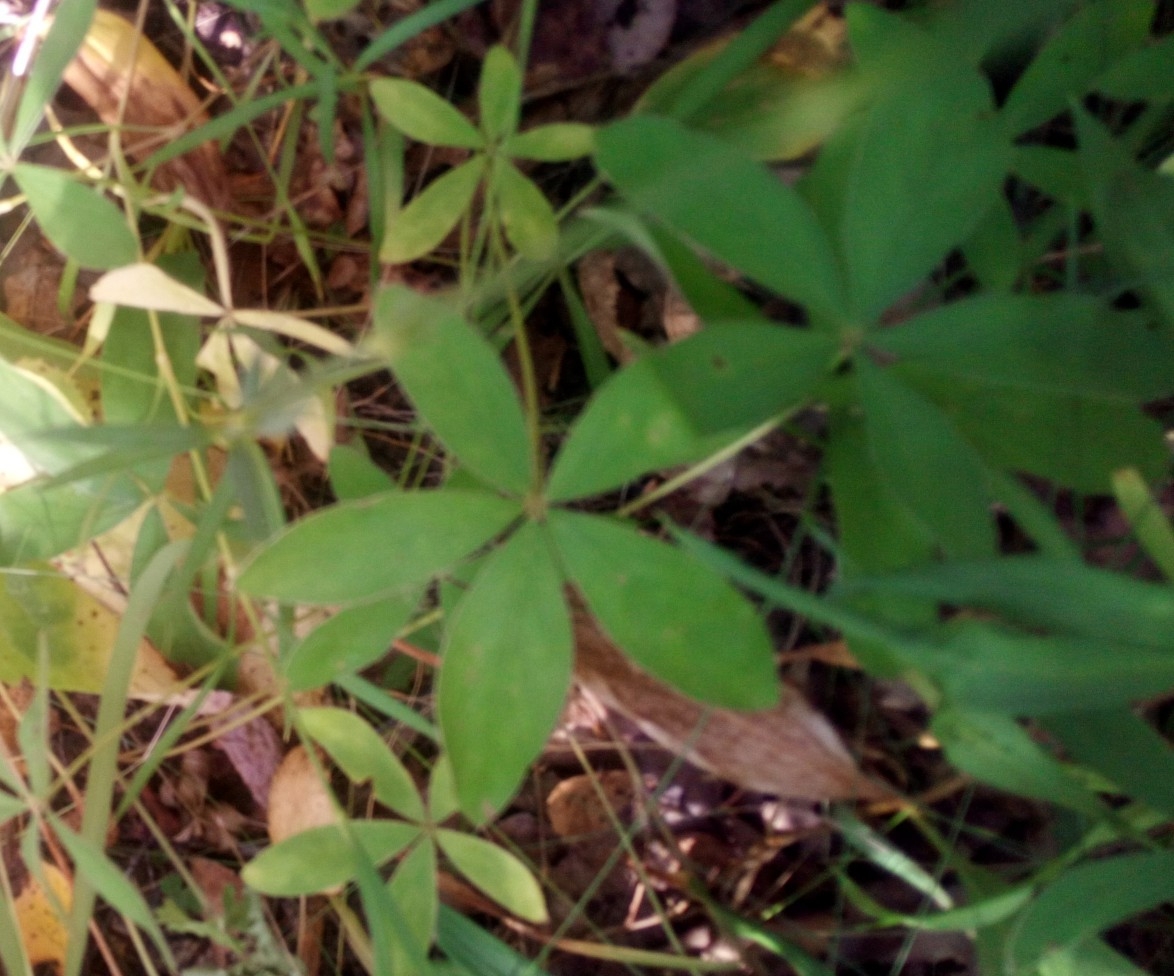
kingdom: Plantae
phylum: Tracheophyta
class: Magnoliopsida
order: Rosales
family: Rosaceae
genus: Potentilla
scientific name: Potentilla alba
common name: White cinquefoil
